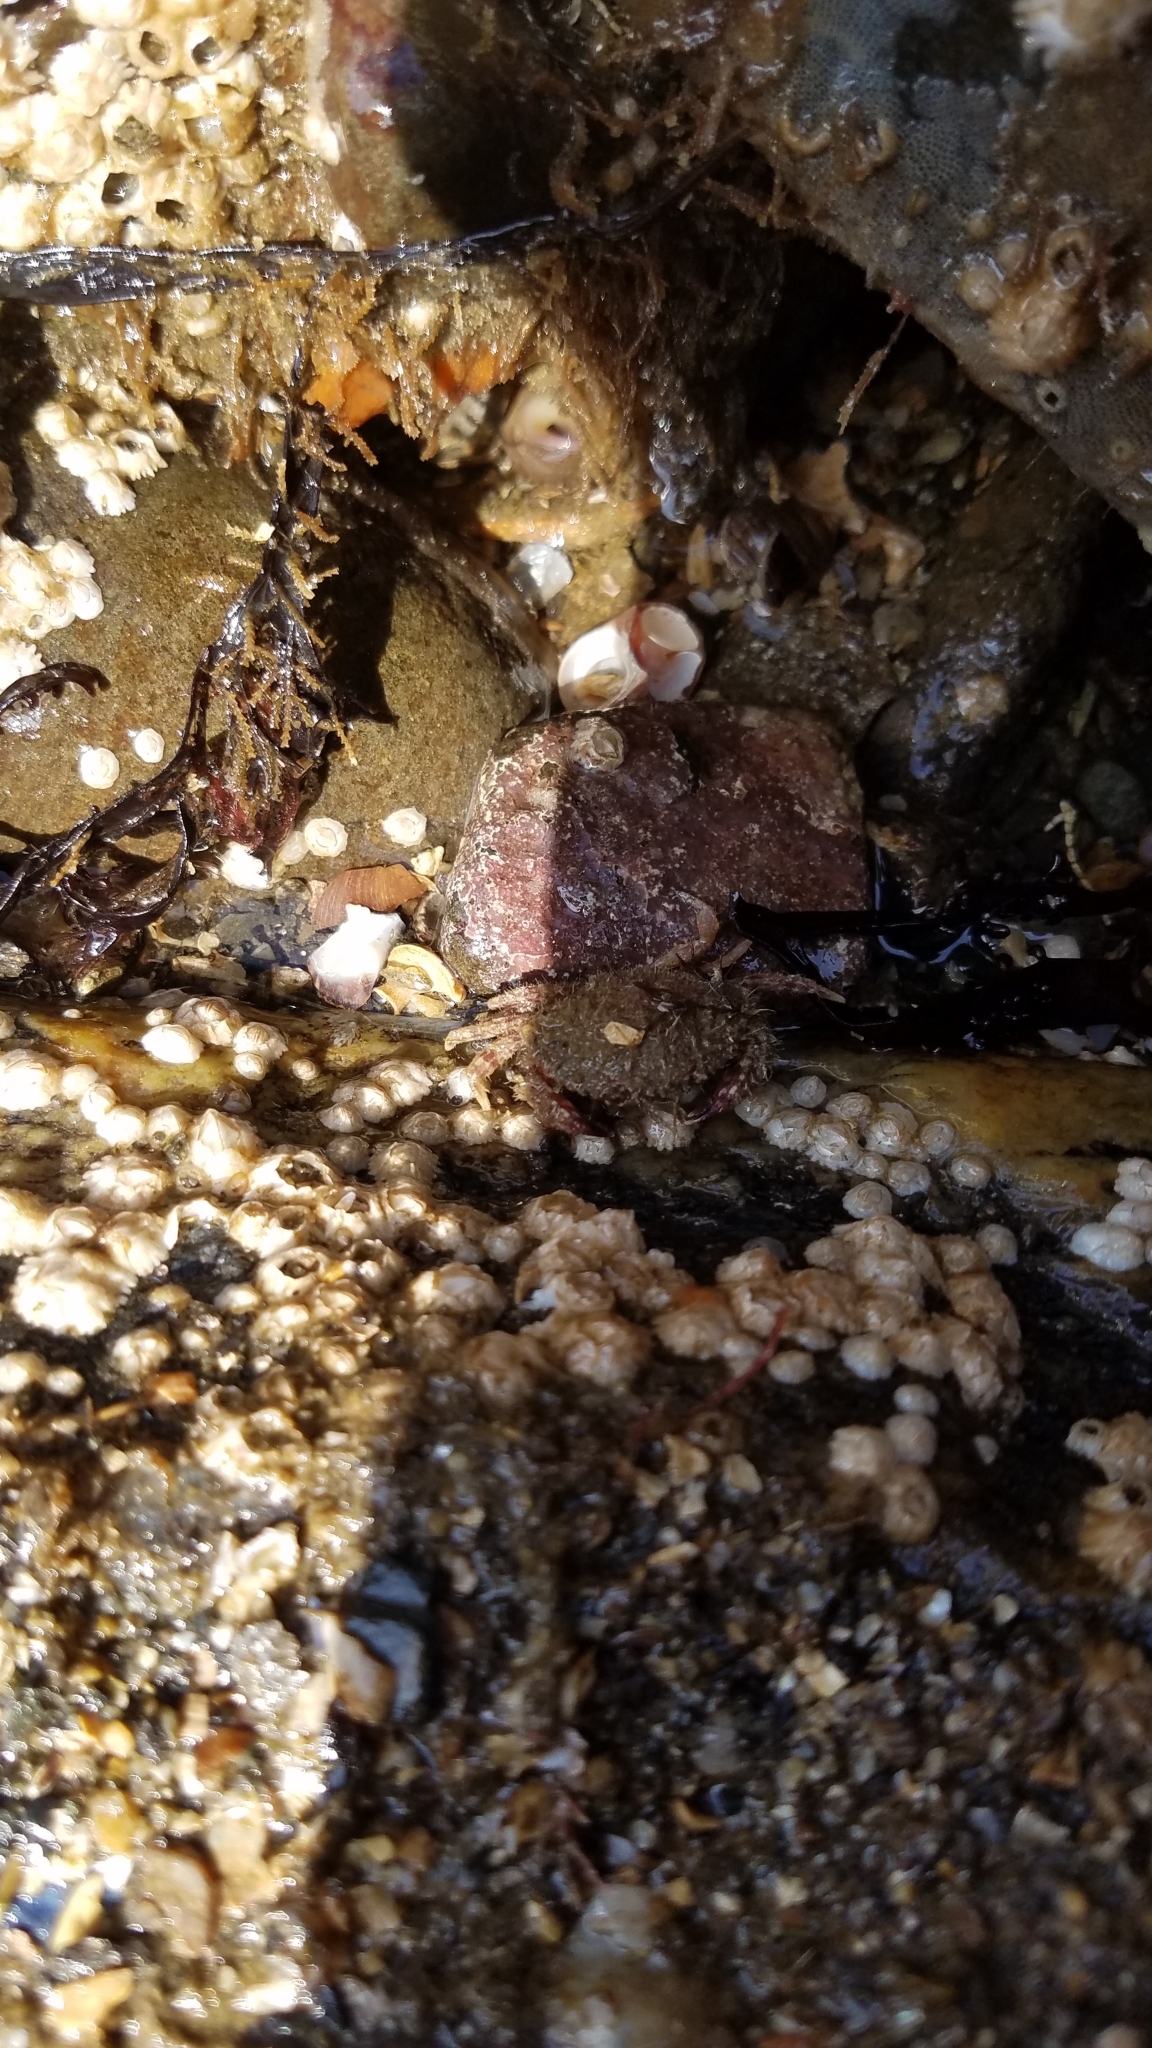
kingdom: Animalia
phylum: Arthropoda
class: Malacostraca
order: Decapoda
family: Cancridae
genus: Cancer
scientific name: Cancer borealis
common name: Jonah crab
